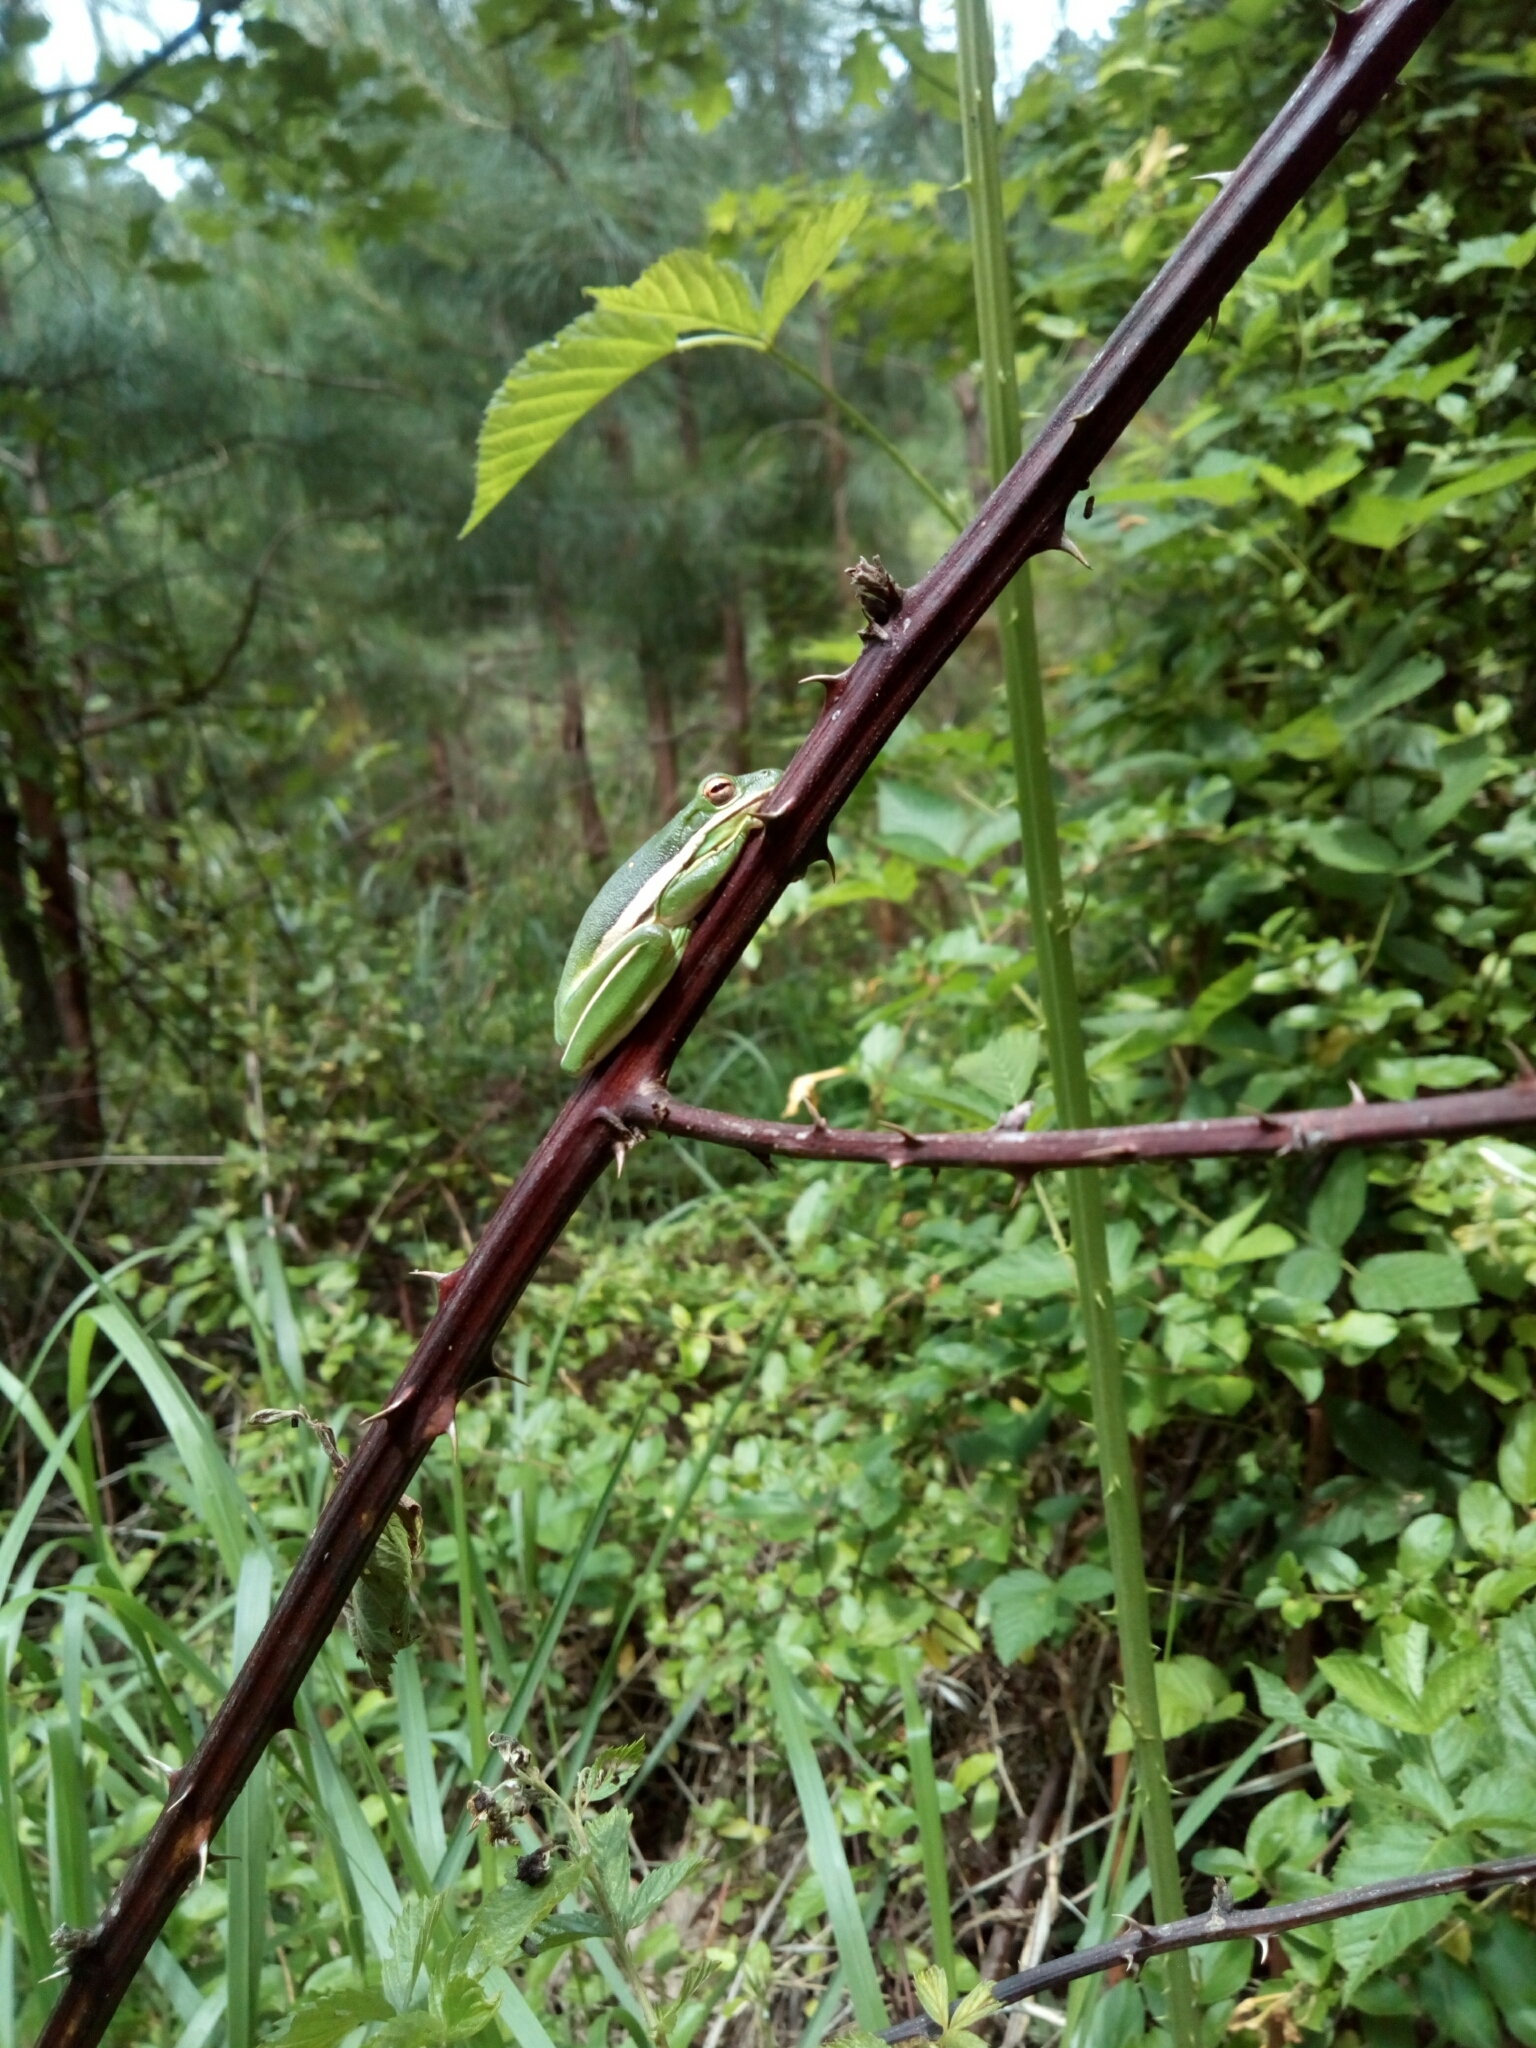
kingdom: Animalia
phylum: Chordata
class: Amphibia
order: Anura
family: Hylidae
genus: Dryophytes
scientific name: Dryophytes cinereus
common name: Green treefrog
